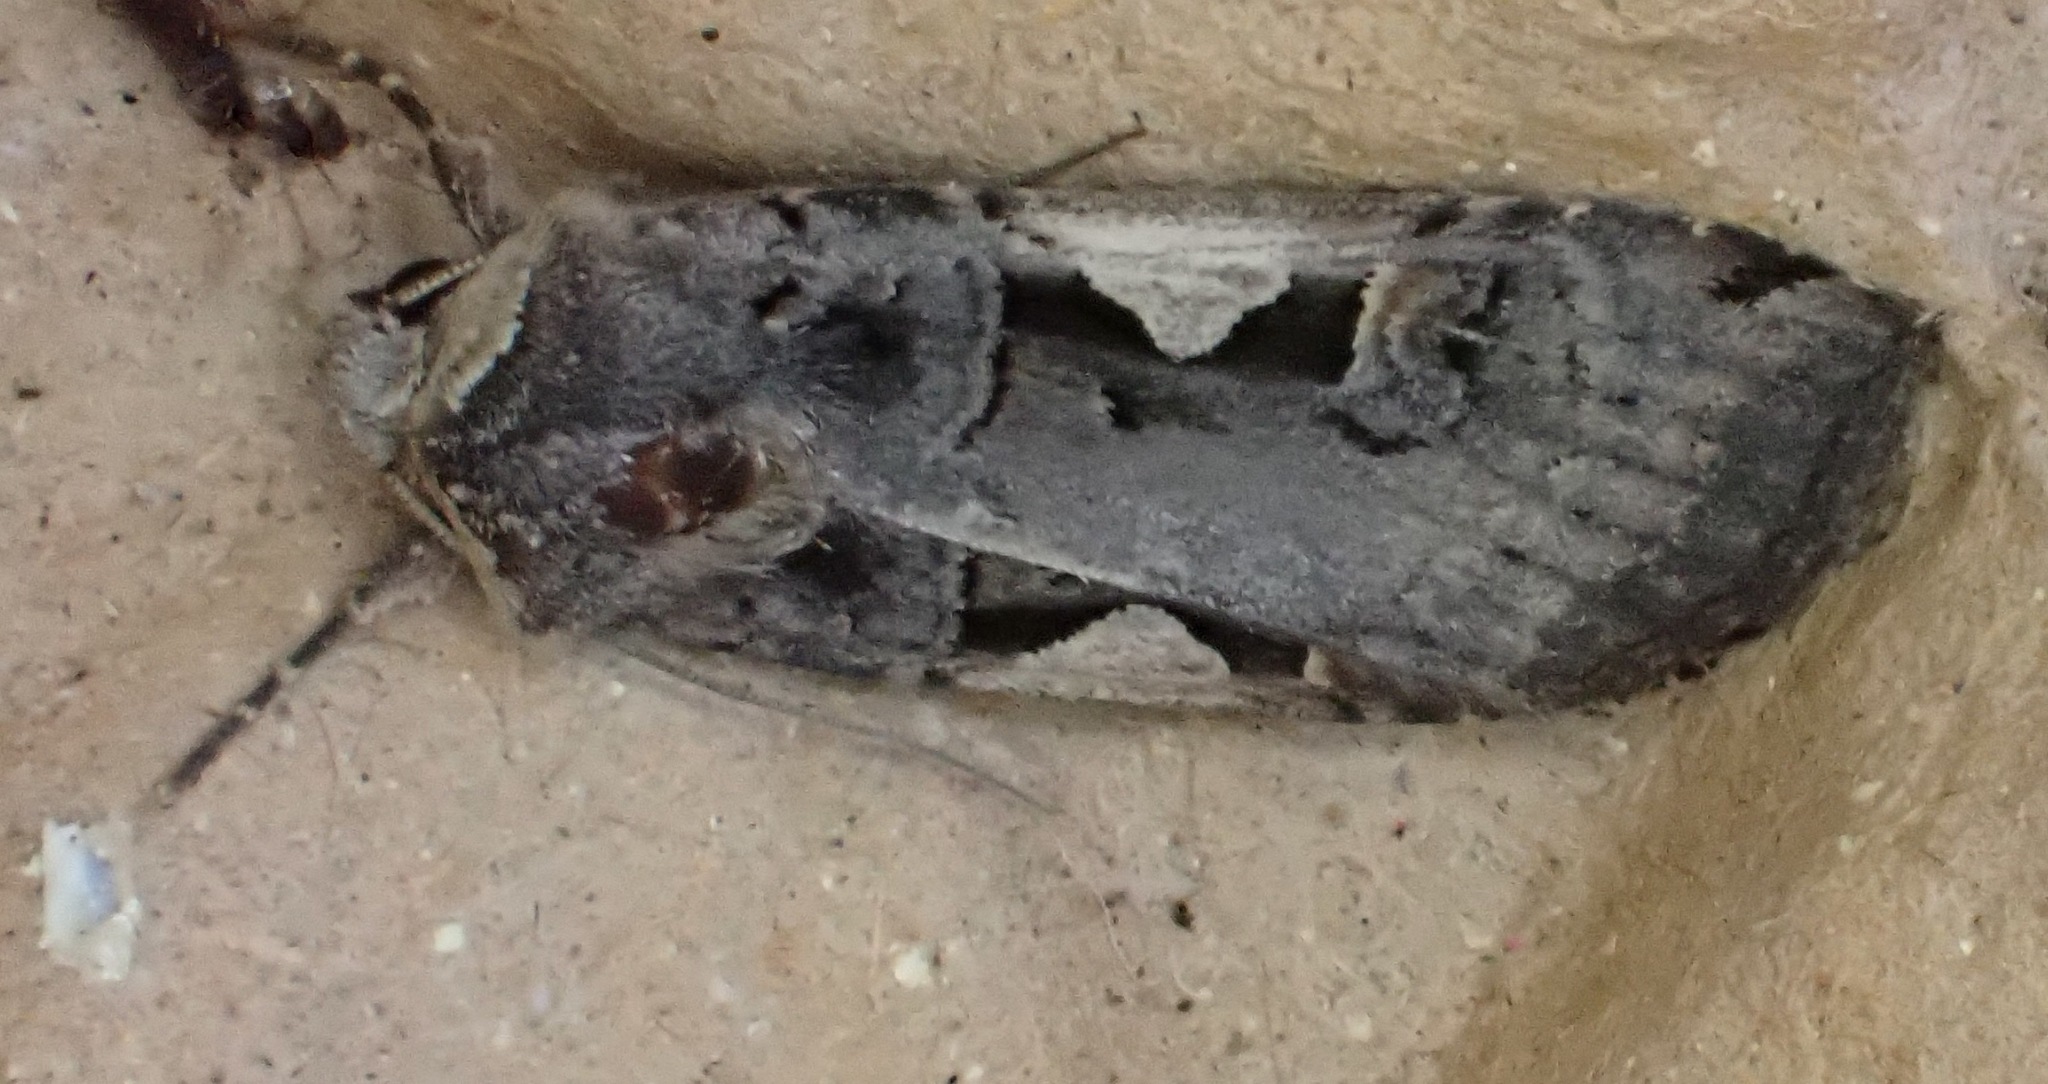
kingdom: Animalia
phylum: Arthropoda
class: Insecta
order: Lepidoptera
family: Noctuidae
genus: Xestia
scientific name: Xestia c-nigrum
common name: Setaceous hebrew character
